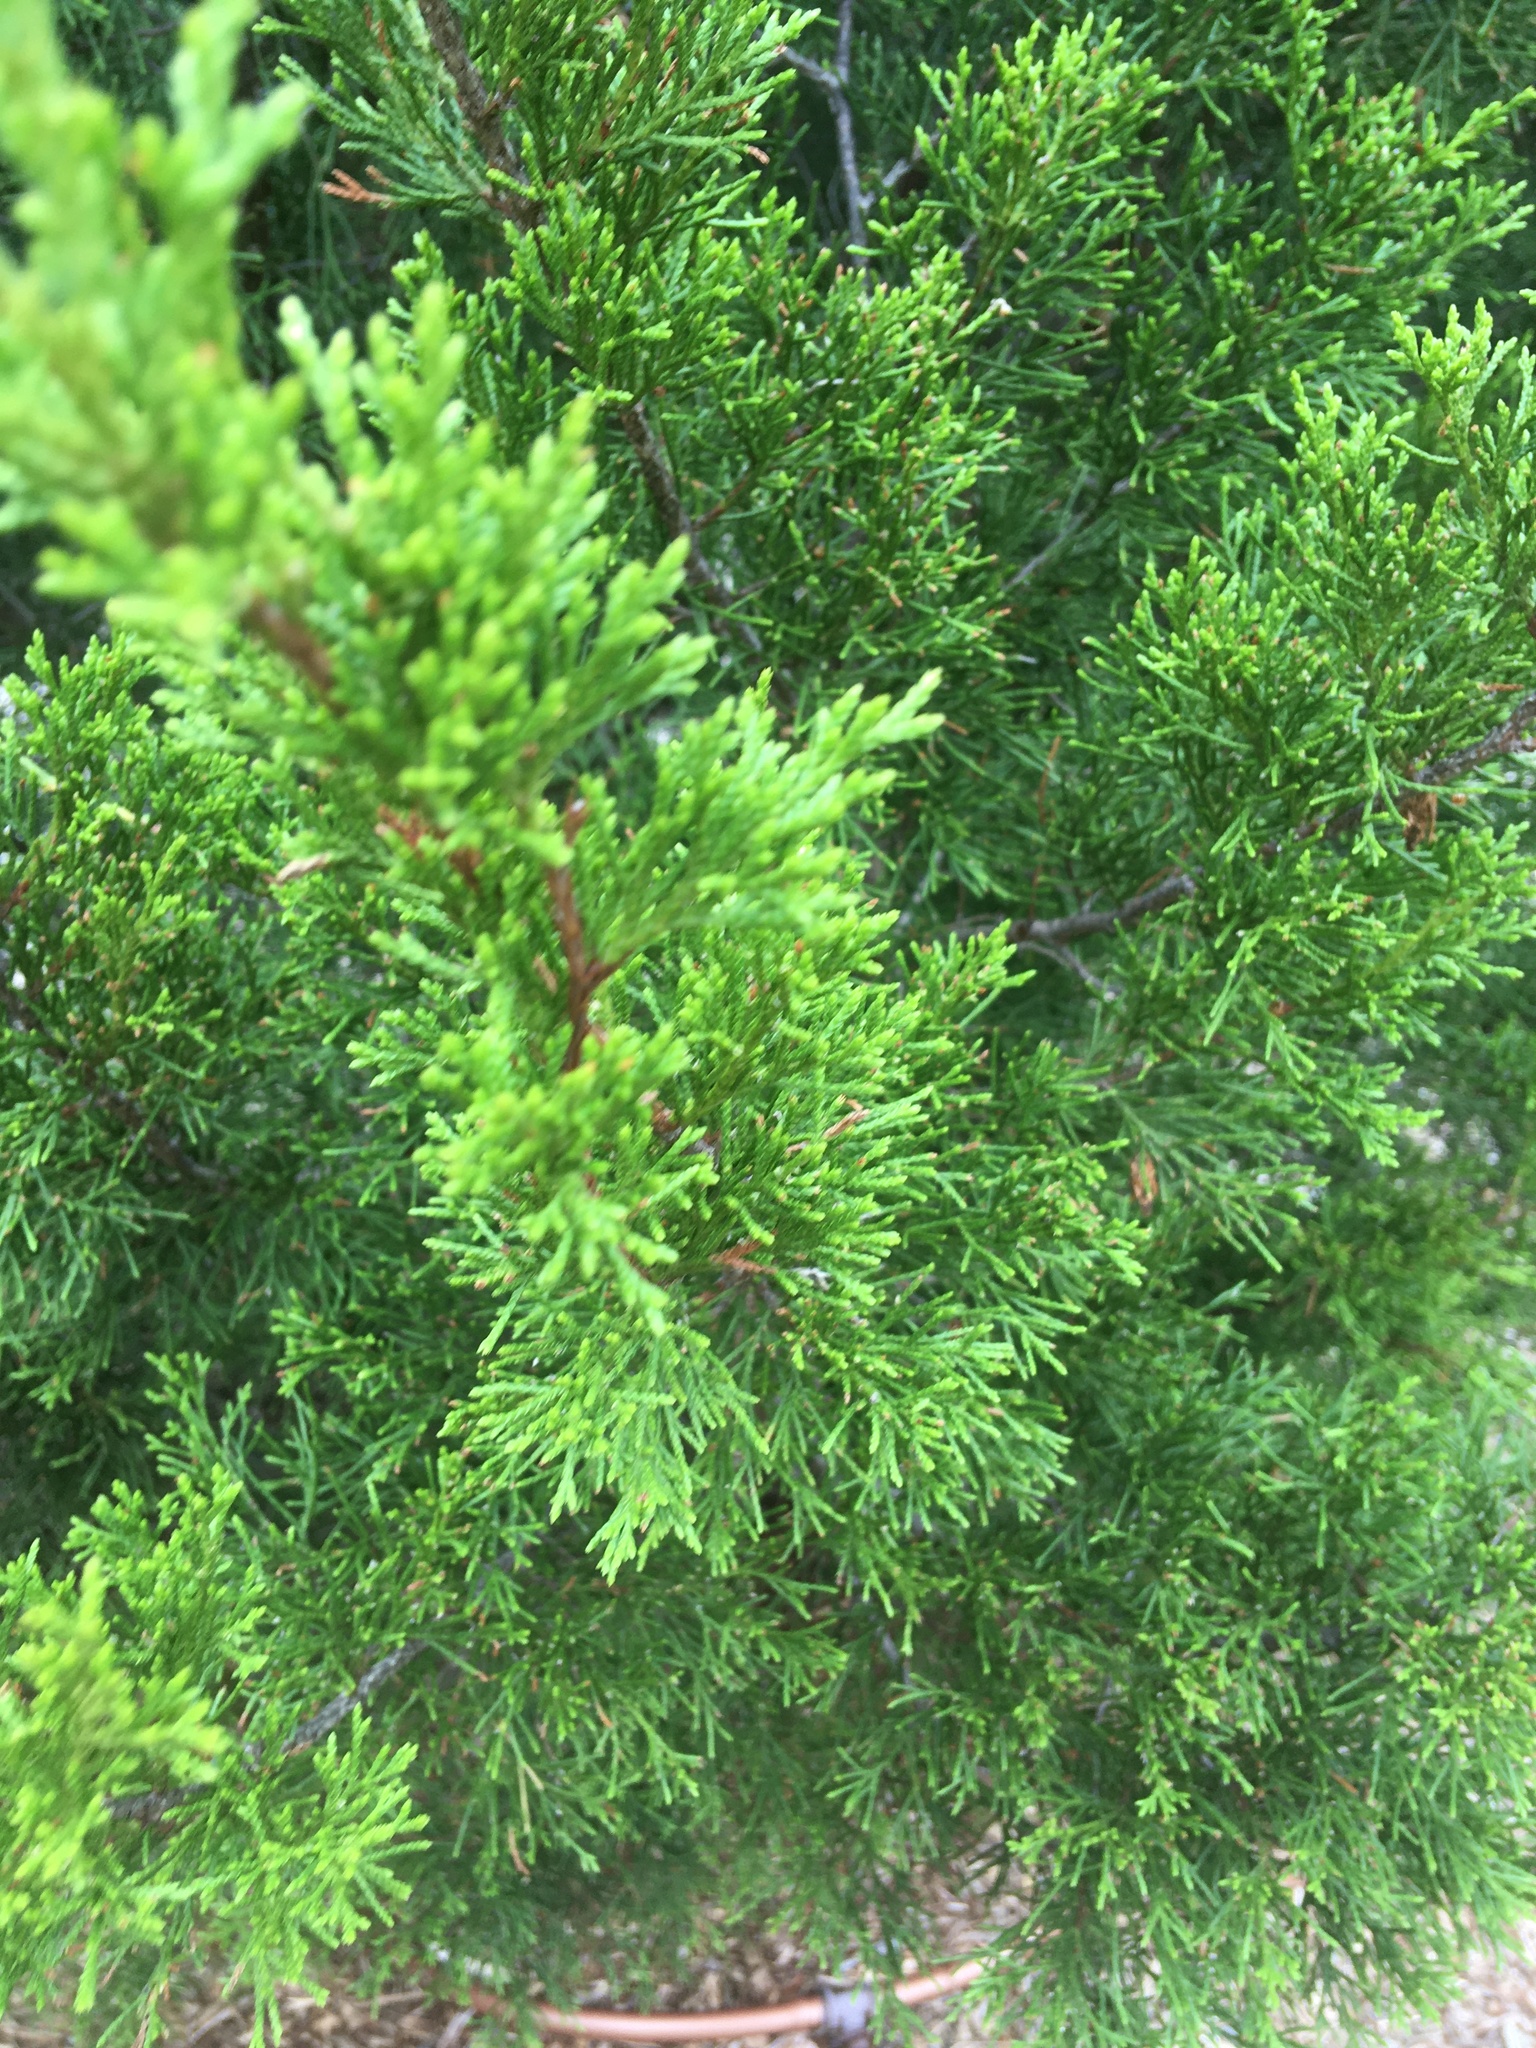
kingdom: Plantae
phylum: Tracheophyta
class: Pinopsida
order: Pinales
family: Cupressaceae
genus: Juniperus
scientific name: Juniperus virginiana
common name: Red juniper
